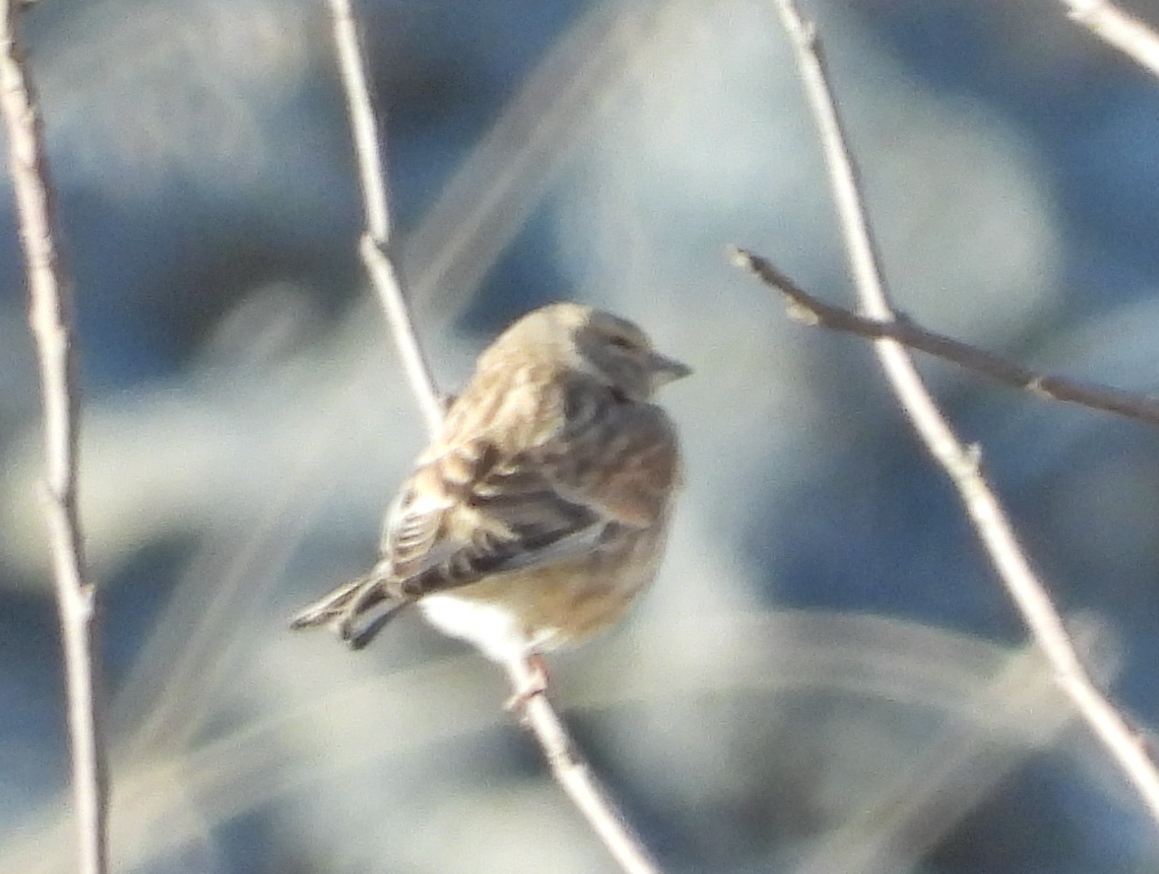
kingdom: Animalia
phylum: Chordata
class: Aves
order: Passeriformes
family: Fringillidae
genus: Linaria
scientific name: Linaria cannabina
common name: Common linnet
